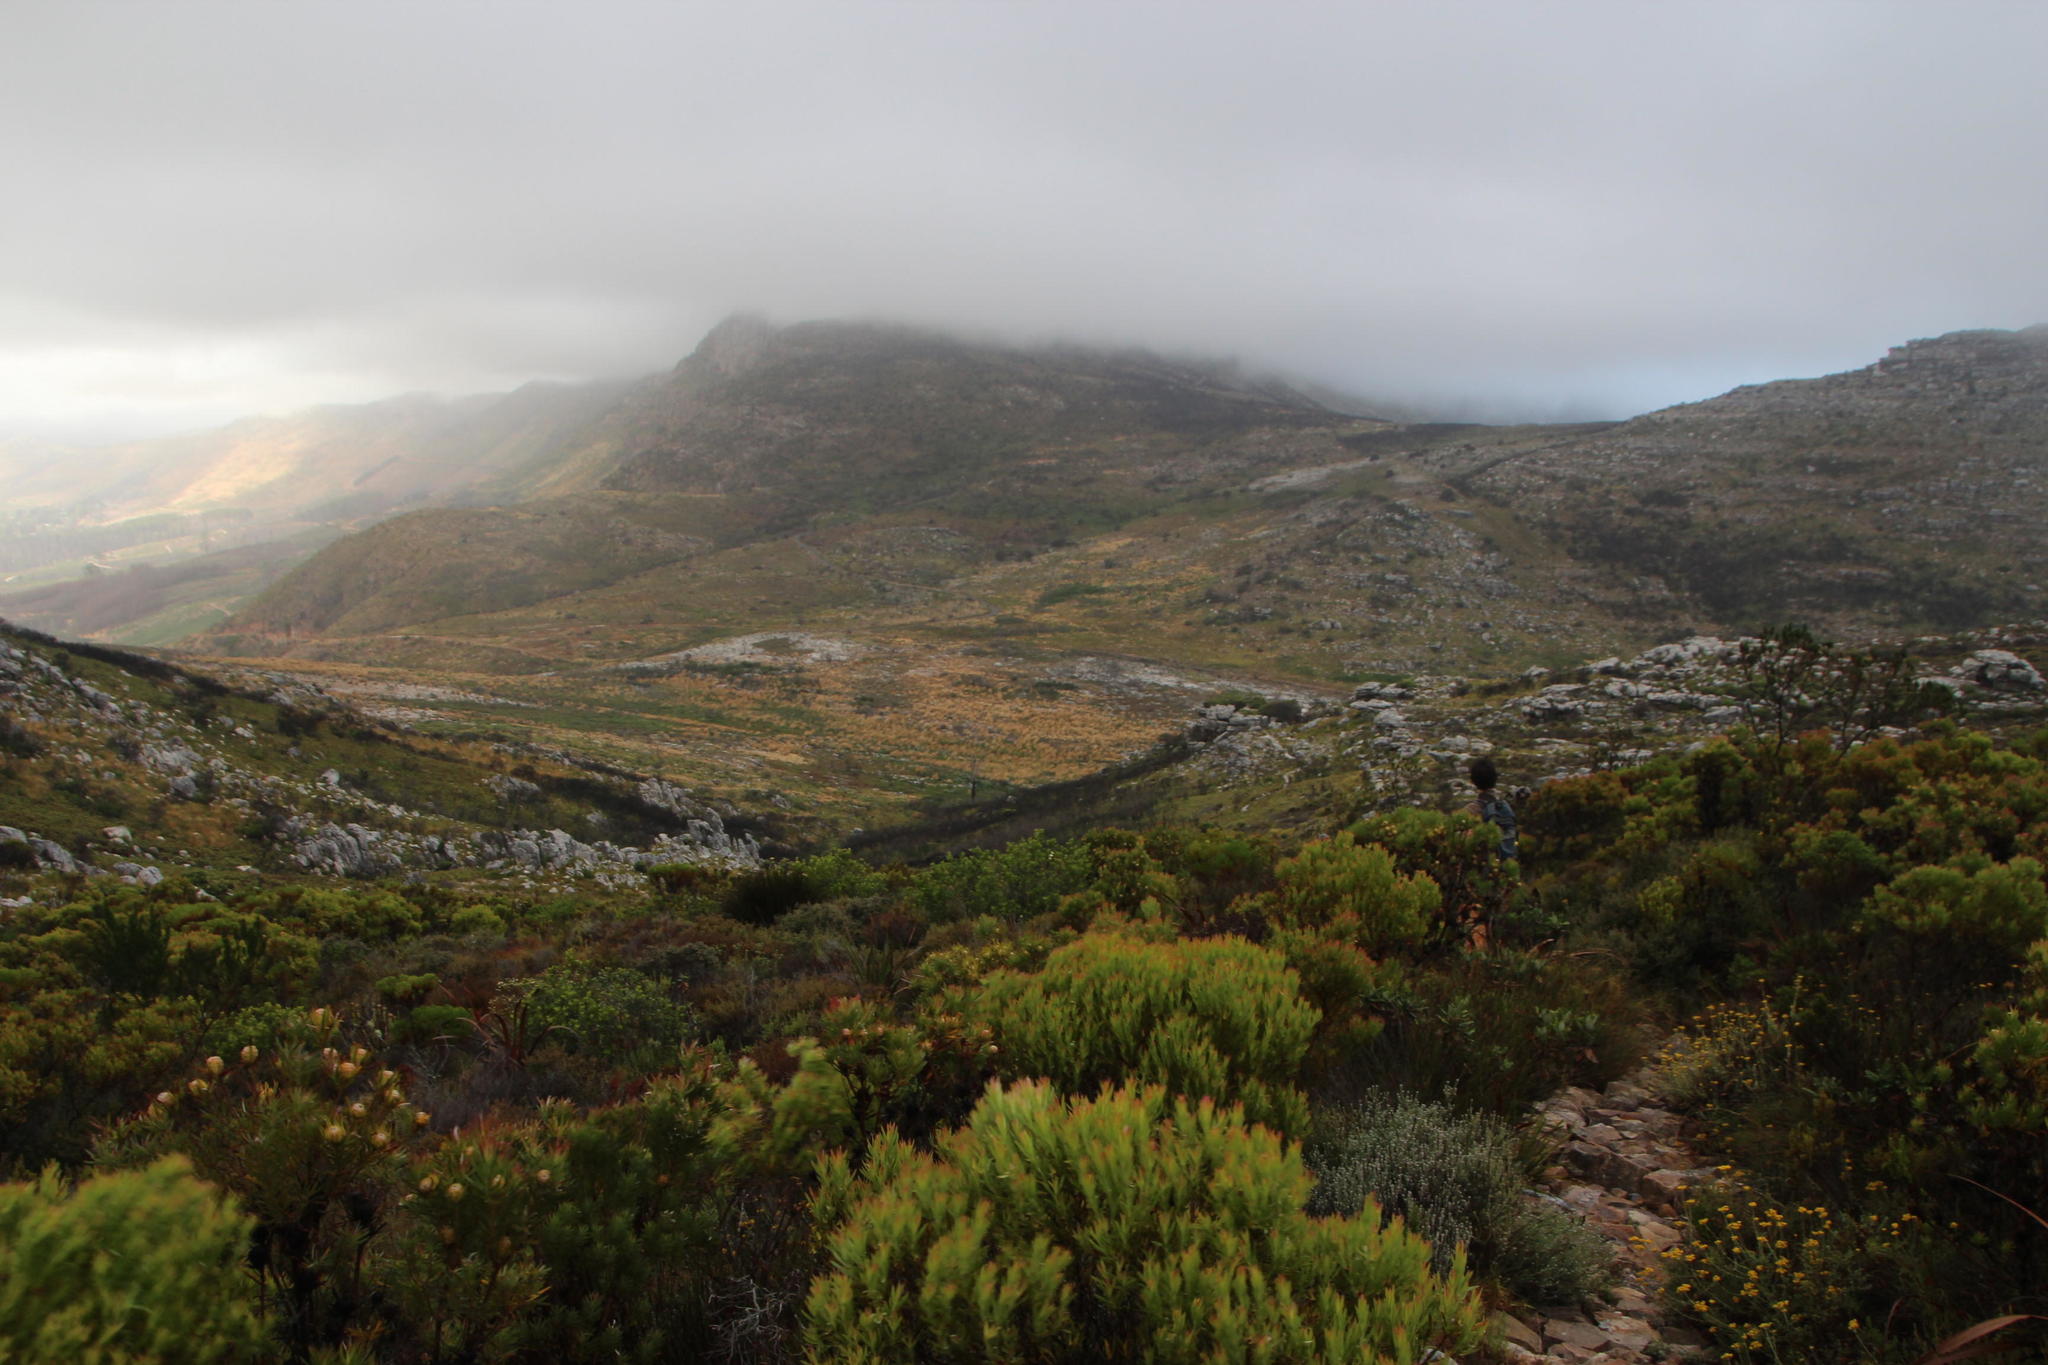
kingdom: Plantae
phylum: Tracheophyta
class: Magnoliopsida
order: Proteales
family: Proteaceae
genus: Leucadendron
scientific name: Leucadendron xanthoconus
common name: Sickle-leaf conebush
